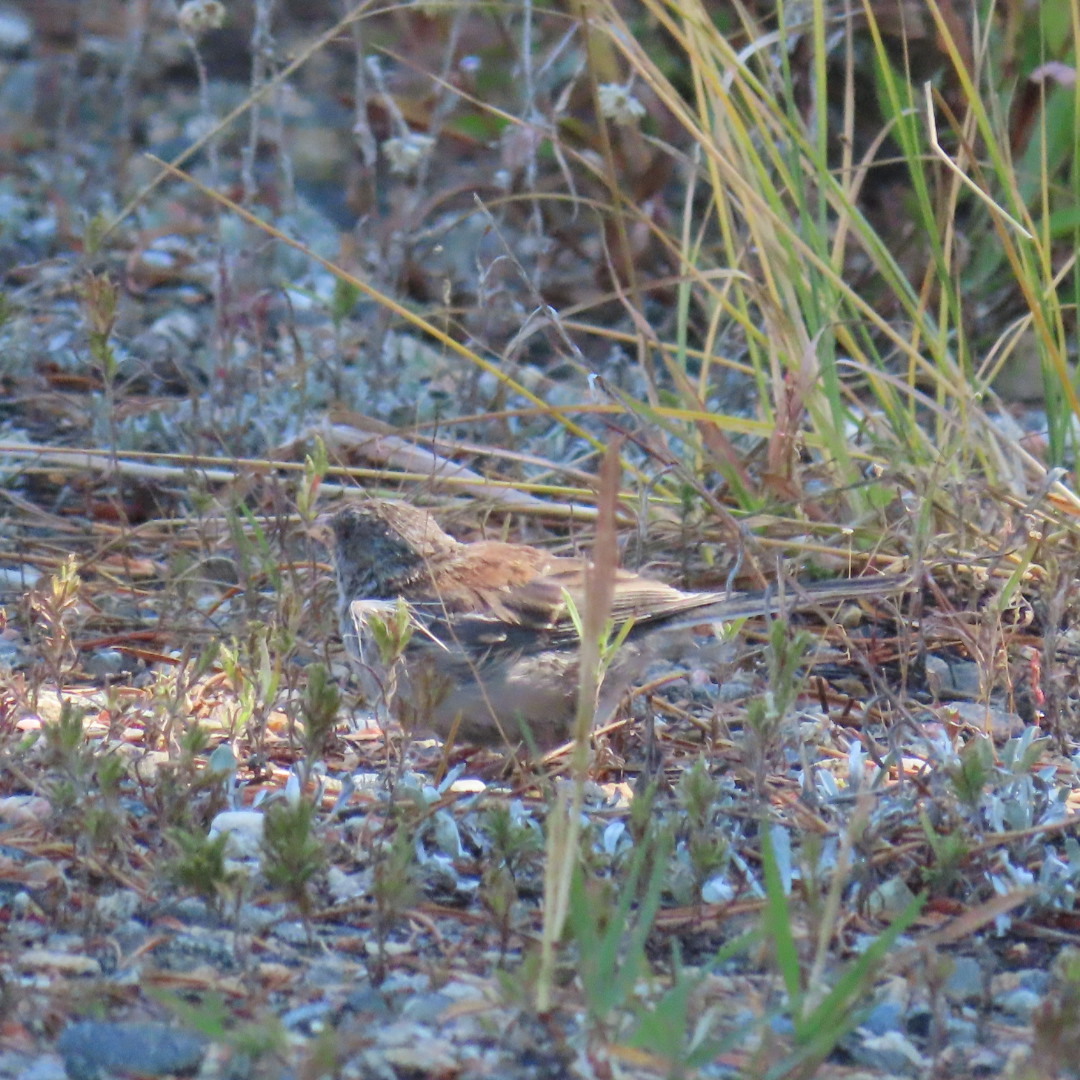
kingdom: Animalia
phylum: Chordata
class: Aves
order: Passeriformes
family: Passerellidae
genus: Junco
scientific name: Junco hyemalis
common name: Dark-eyed junco
